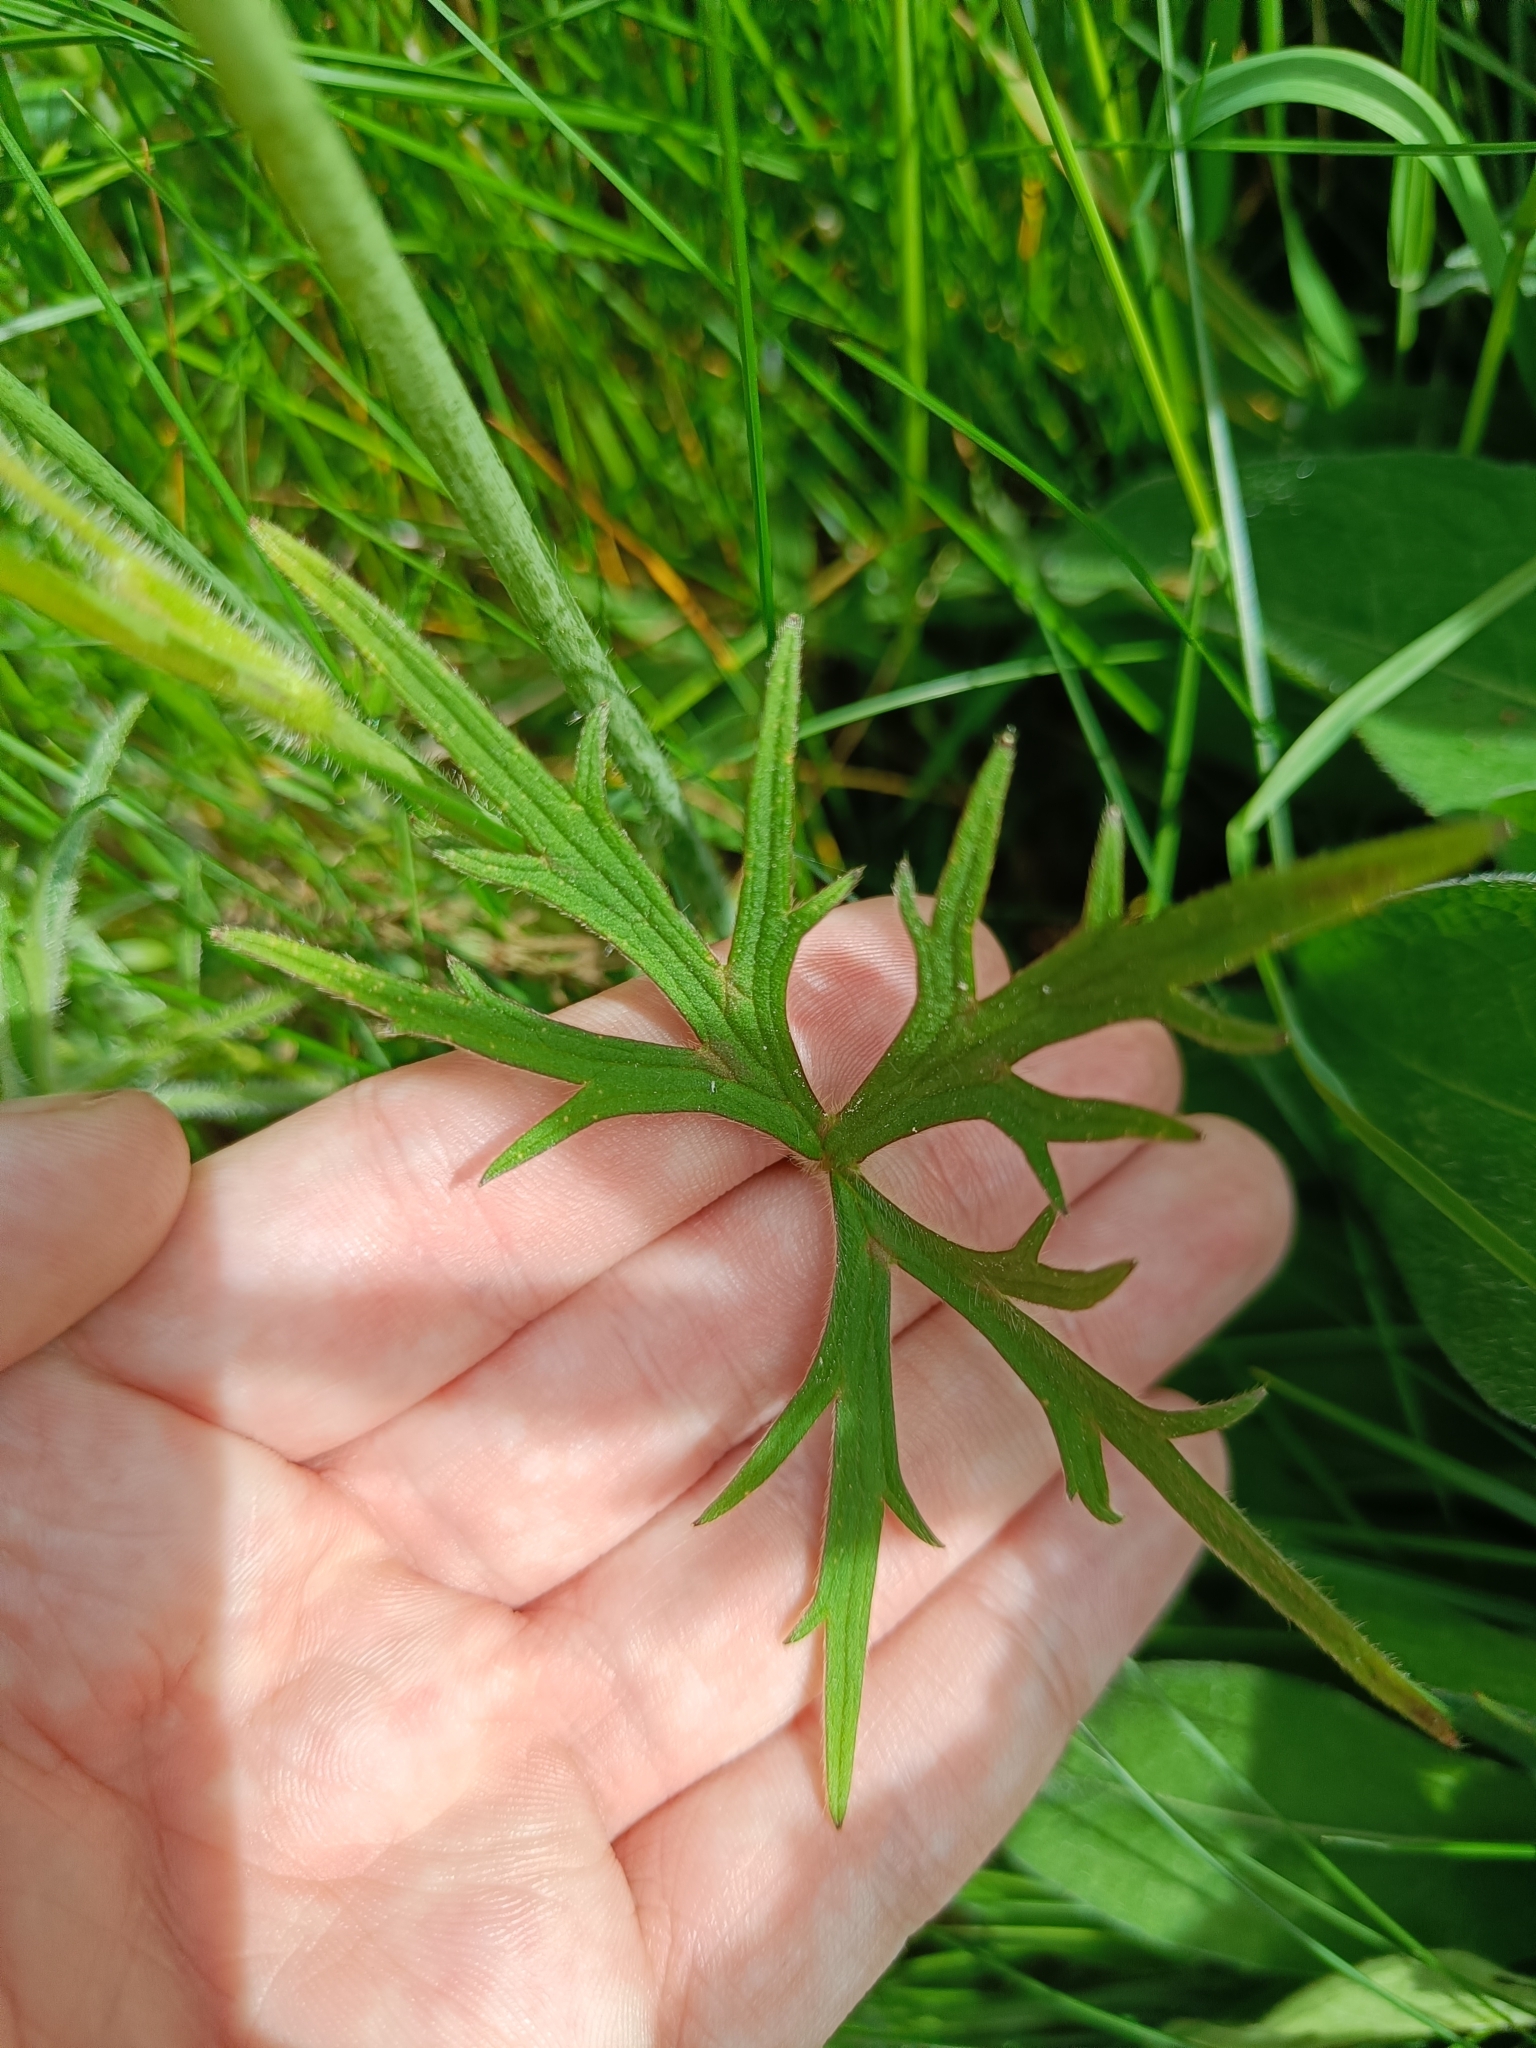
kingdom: Plantae
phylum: Tracheophyta
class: Magnoliopsida
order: Ranunculales
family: Ranunculaceae
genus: Ranunculus
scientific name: Ranunculus acris
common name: Meadow buttercup
